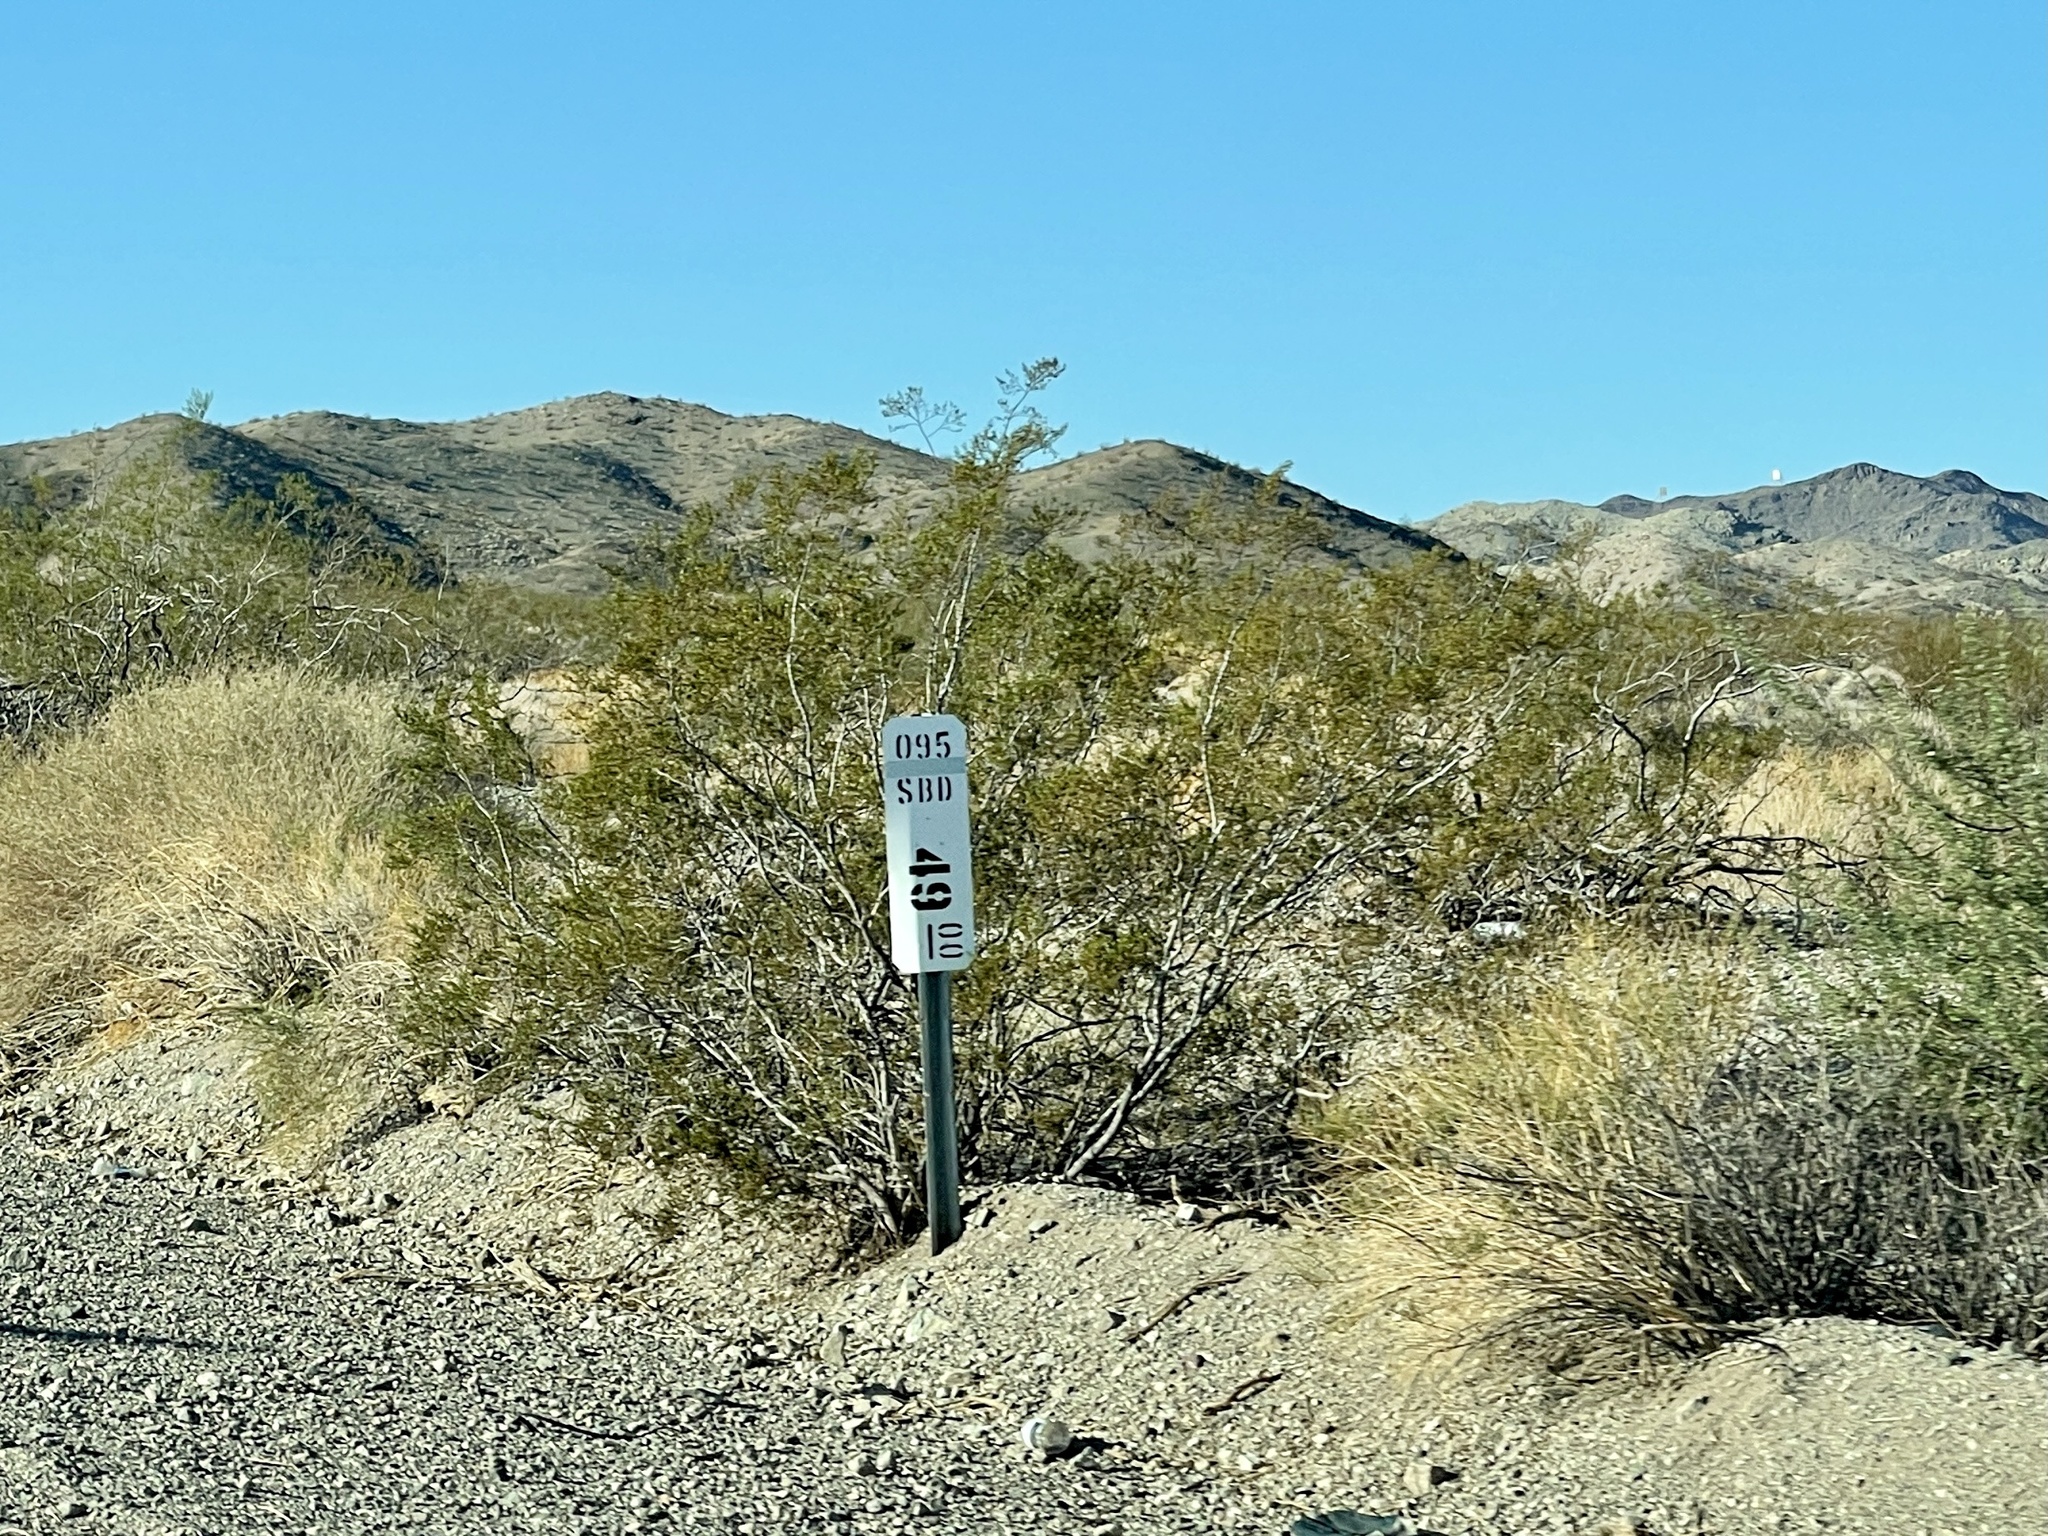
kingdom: Plantae
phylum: Tracheophyta
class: Magnoliopsida
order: Zygophyllales
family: Zygophyllaceae
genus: Larrea
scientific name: Larrea tridentata
